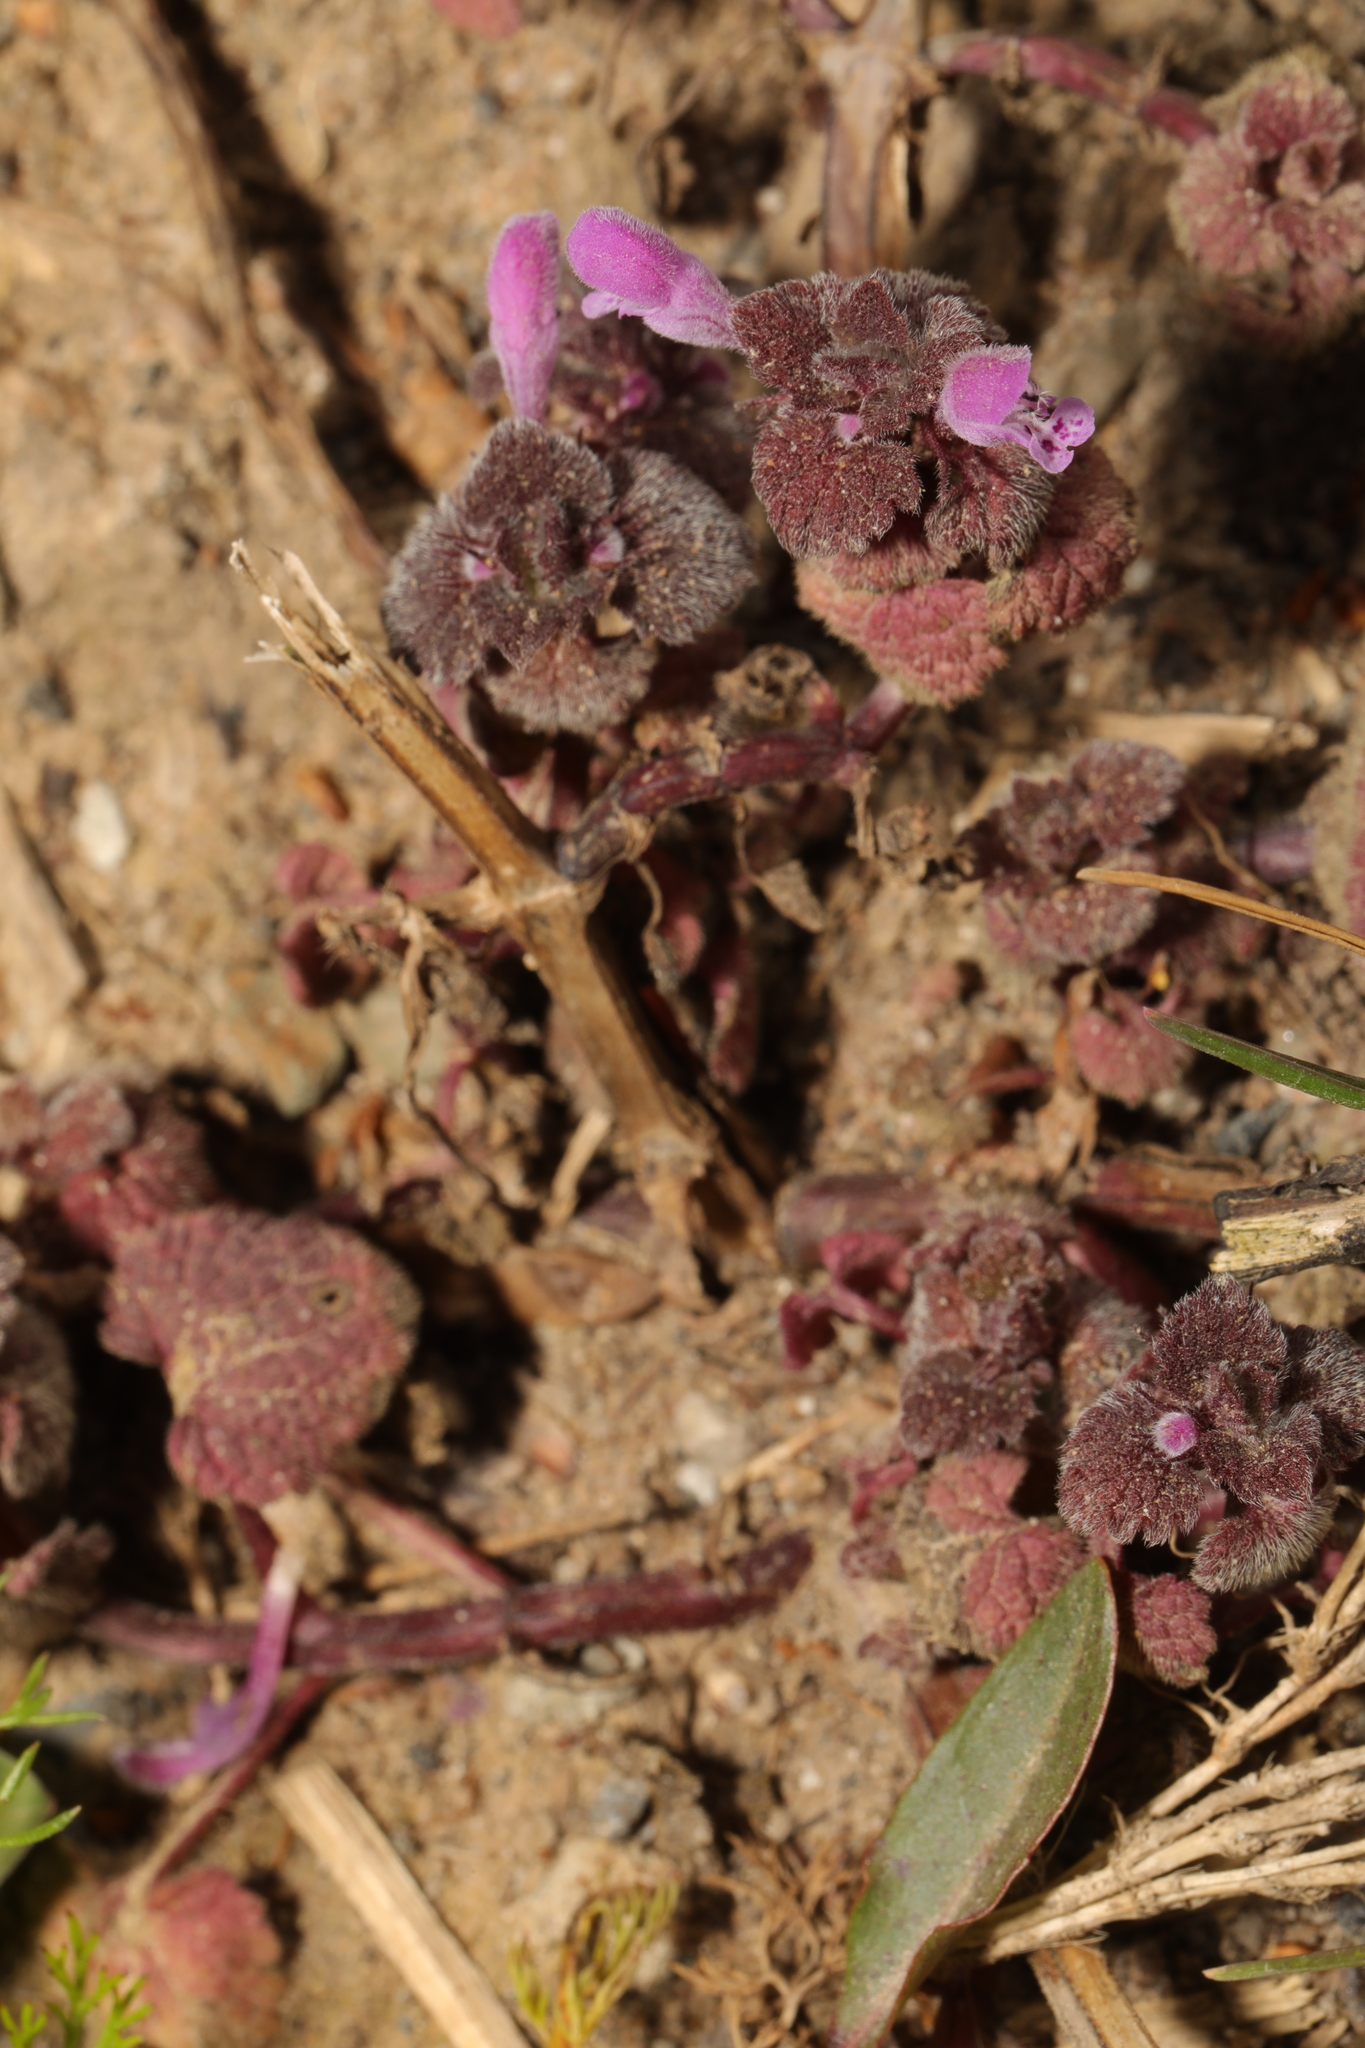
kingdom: Plantae
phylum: Tracheophyta
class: Magnoliopsida
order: Lamiales
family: Lamiaceae
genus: Lamium
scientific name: Lamium purpureum
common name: Red dead-nettle
